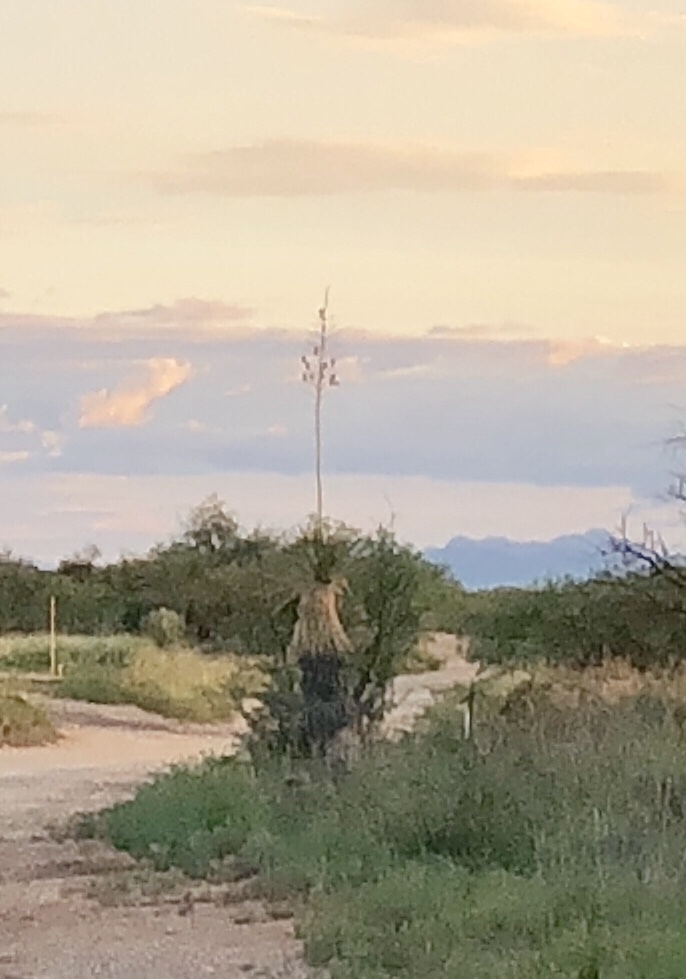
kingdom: Plantae
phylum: Tracheophyta
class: Liliopsida
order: Asparagales
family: Asparagaceae
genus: Yucca
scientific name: Yucca elata
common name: Palmella
